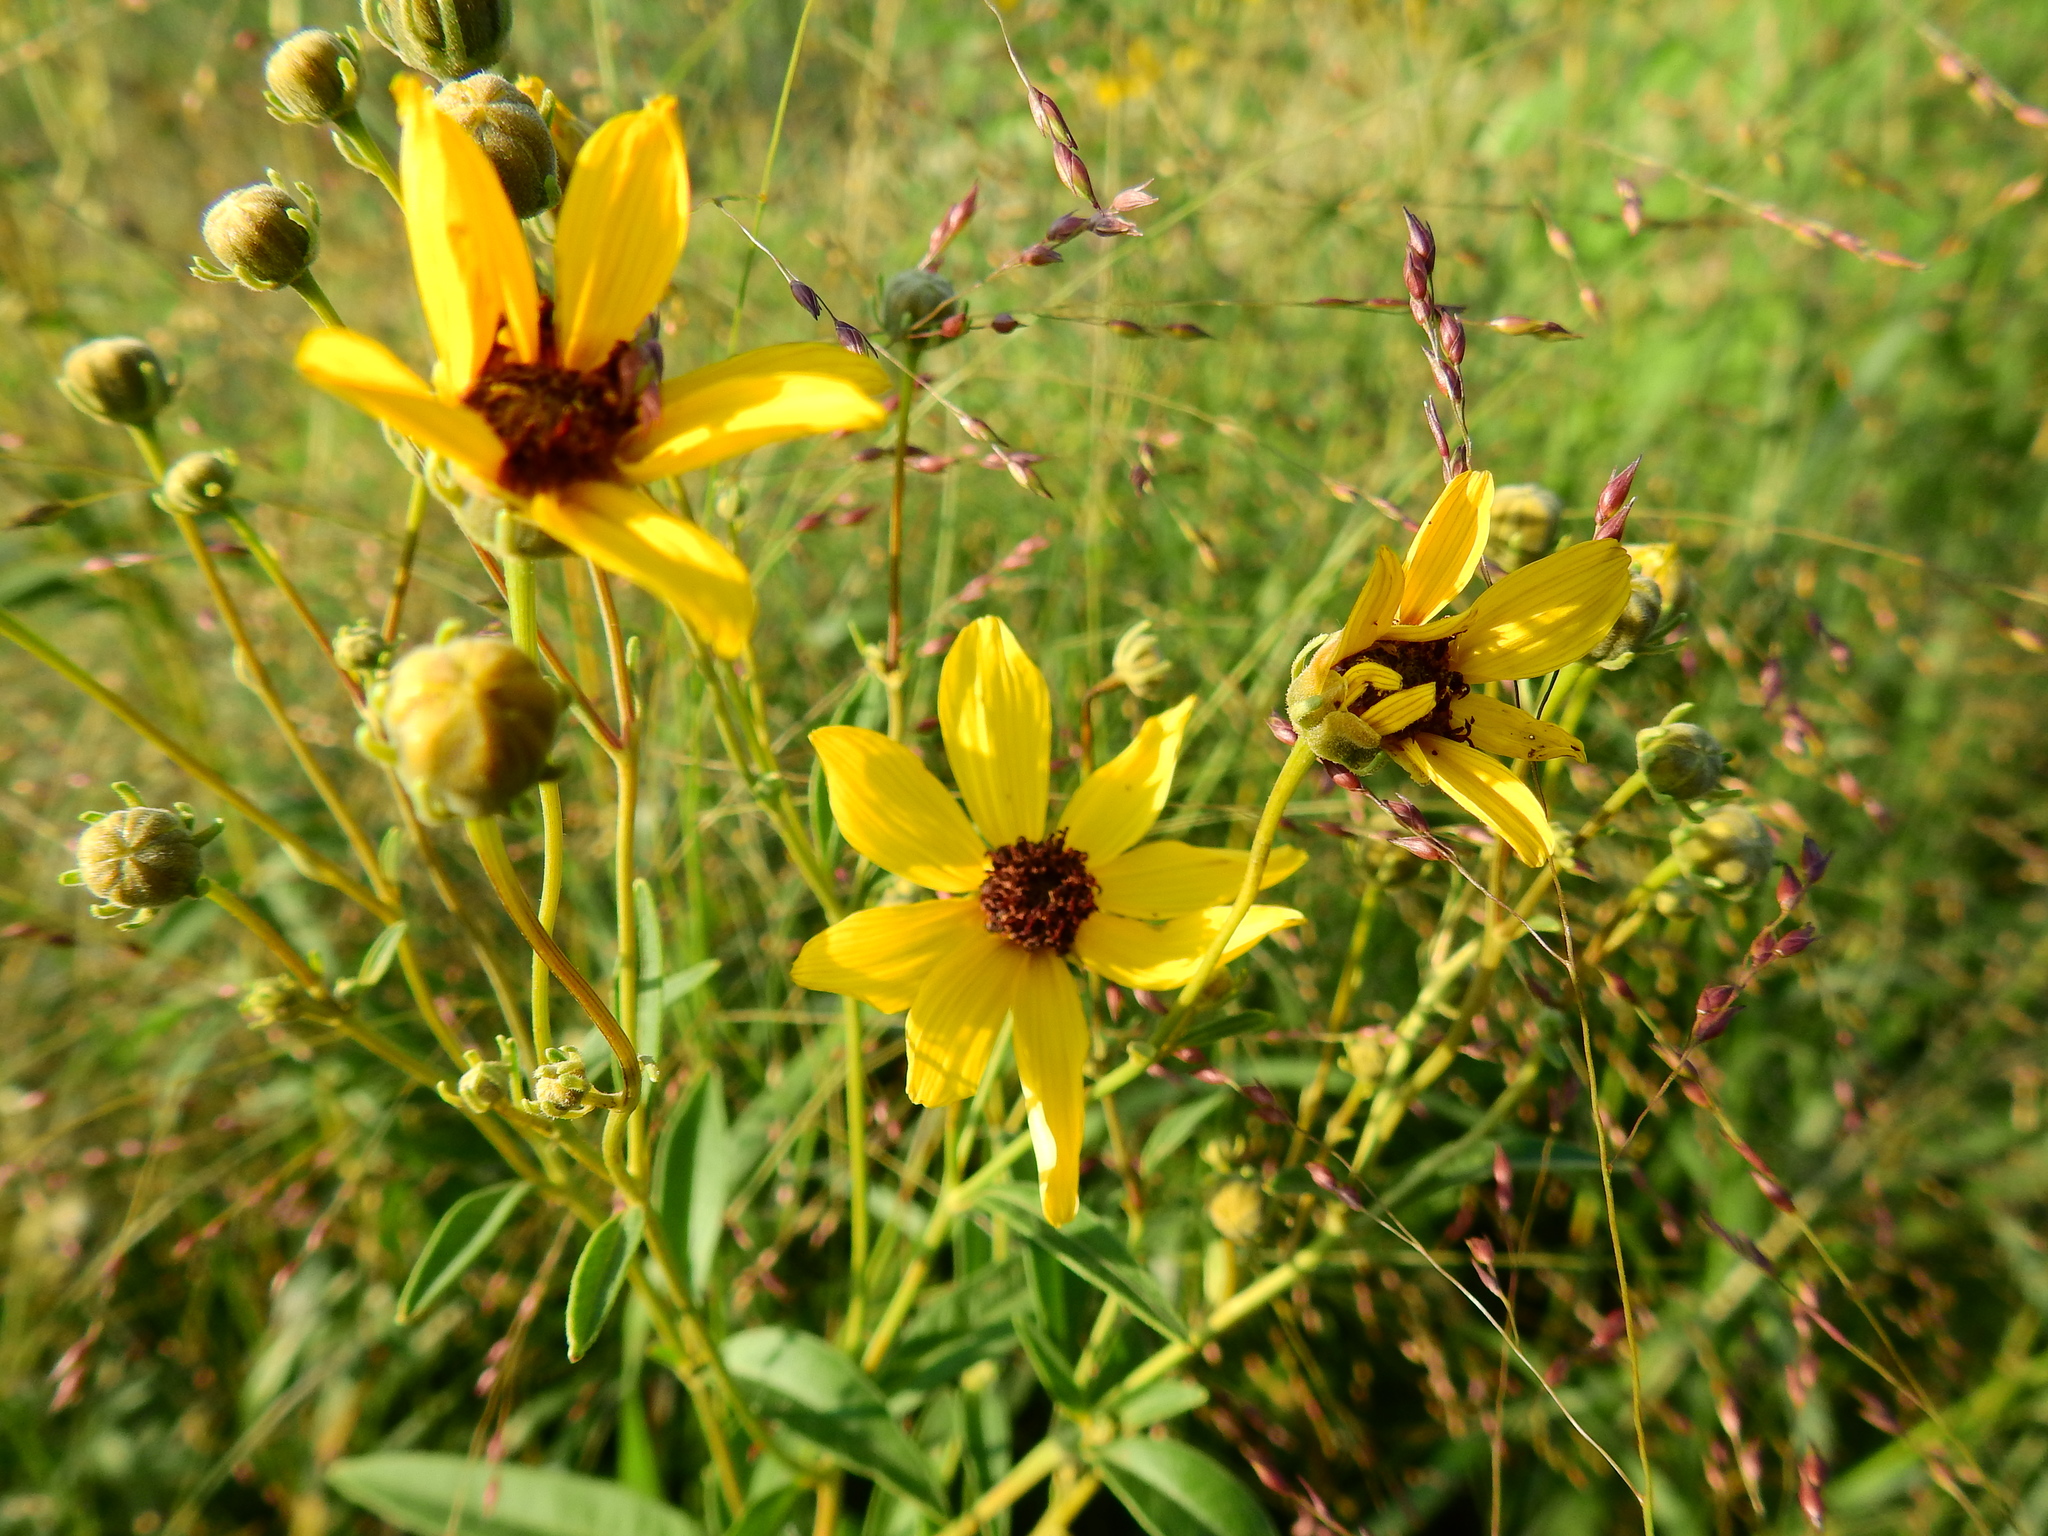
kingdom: Plantae
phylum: Tracheophyta
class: Magnoliopsida
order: Asterales
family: Asteraceae
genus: Coreopsis
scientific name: Coreopsis tripteris
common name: Tall coreopsis
